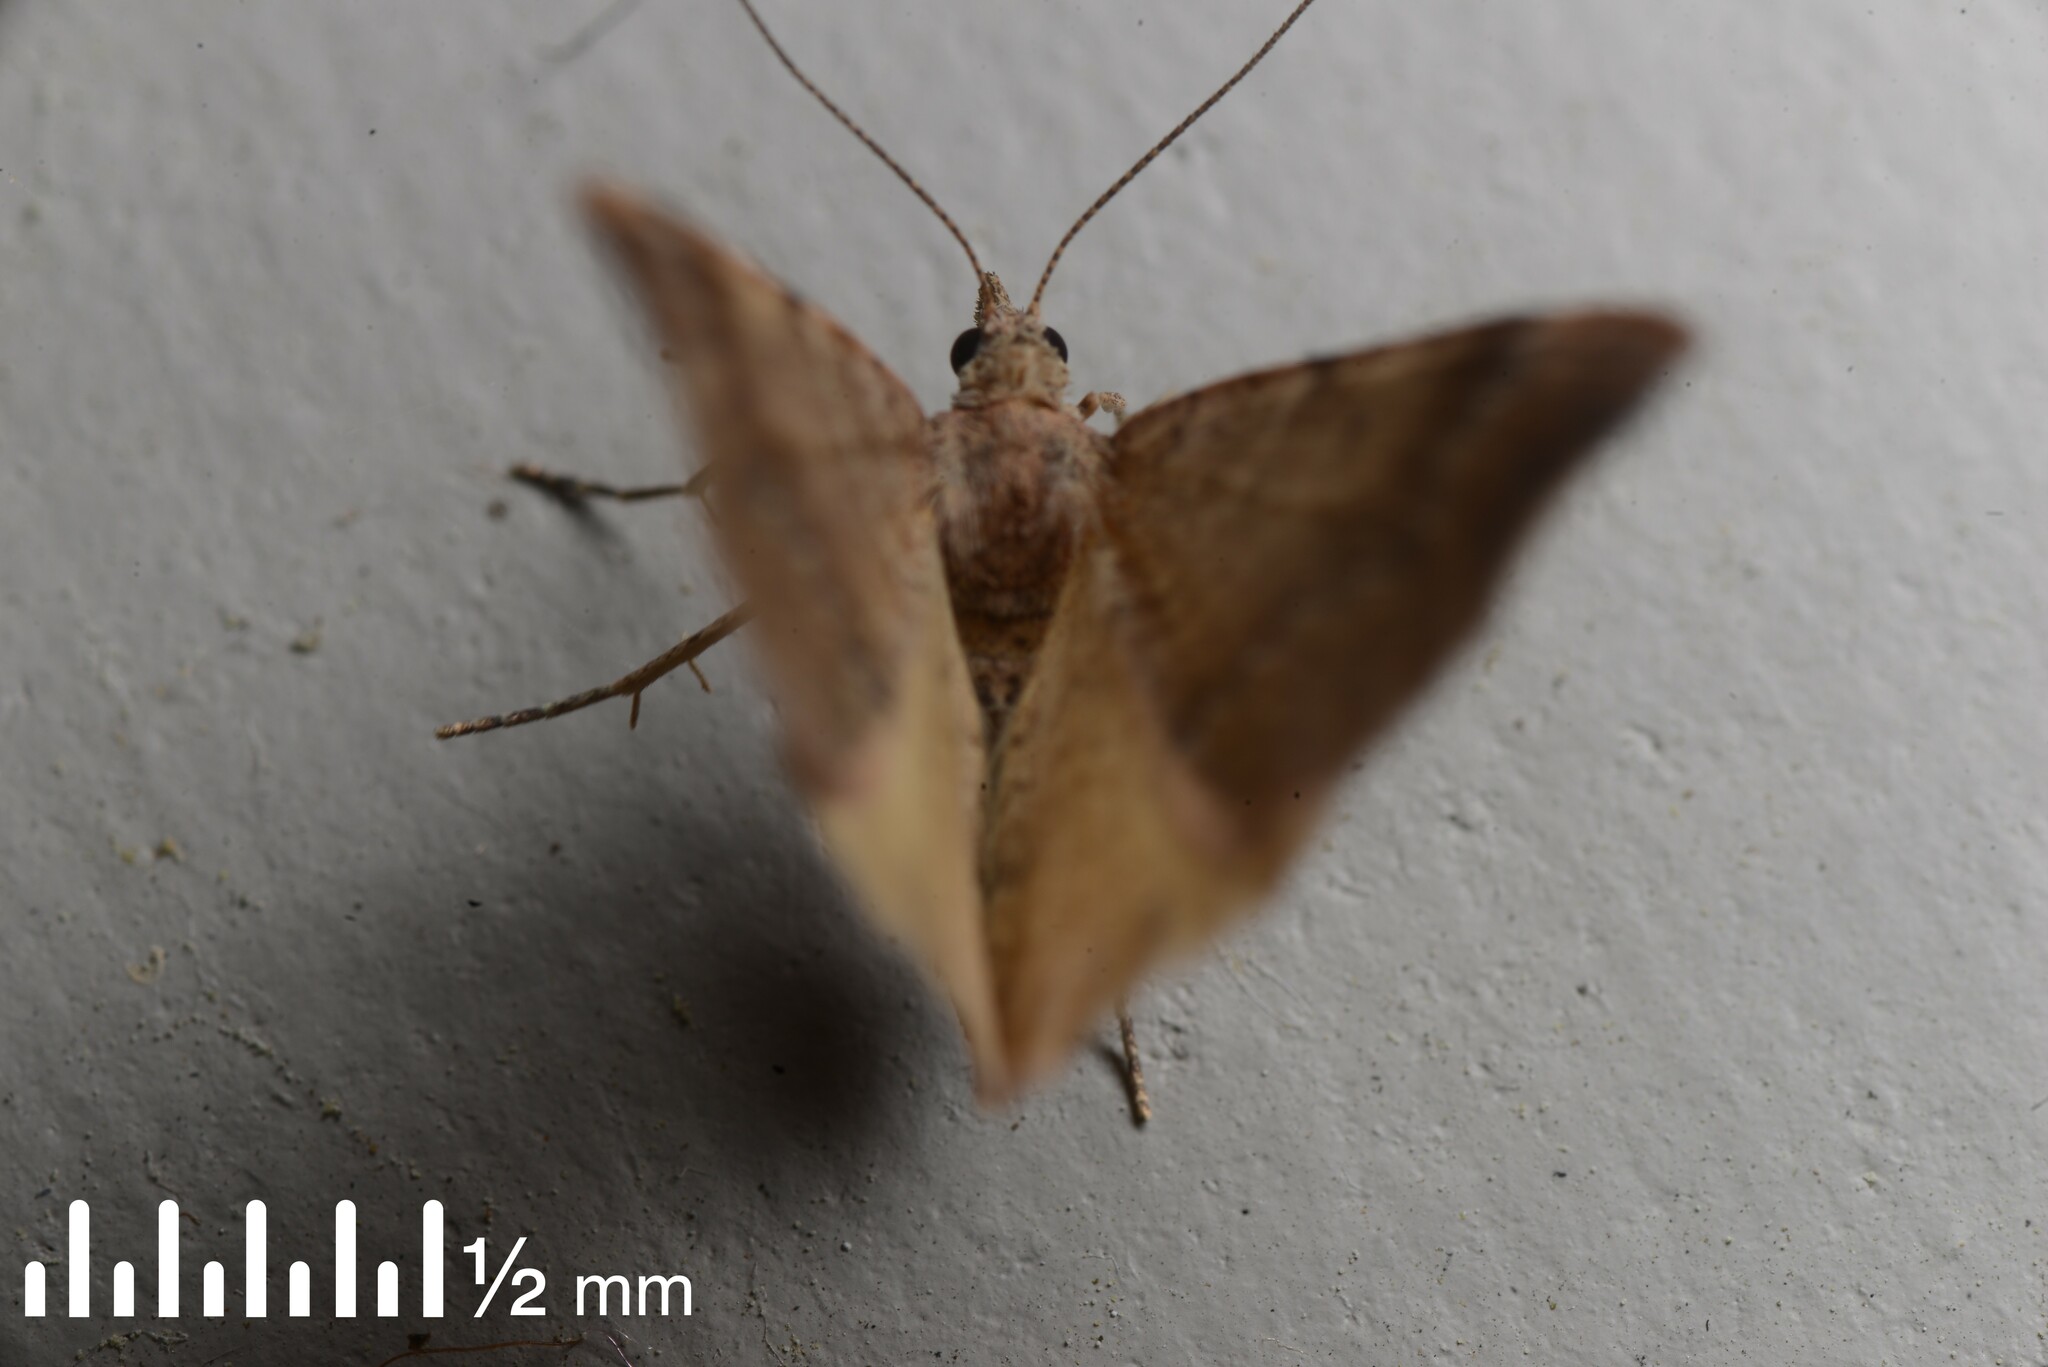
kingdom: Animalia
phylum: Arthropoda
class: Insecta
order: Lepidoptera
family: Geometridae
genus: Homodotis
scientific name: Homodotis megaspilata
